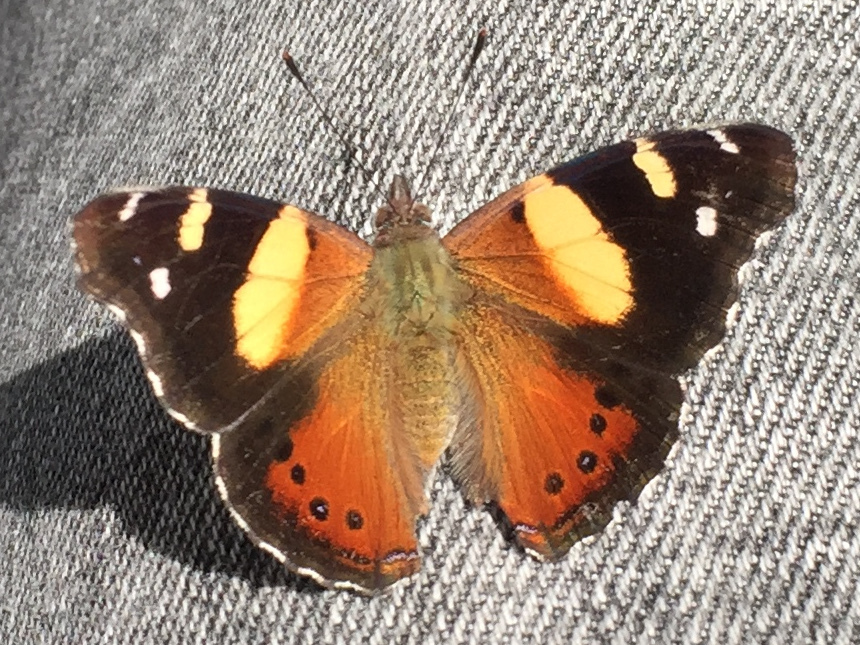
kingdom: Animalia
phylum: Arthropoda
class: Insecta
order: Lepidoptera
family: Nymphalidae
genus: Vanessa
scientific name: Vanessa itea
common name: Yellow admiral
